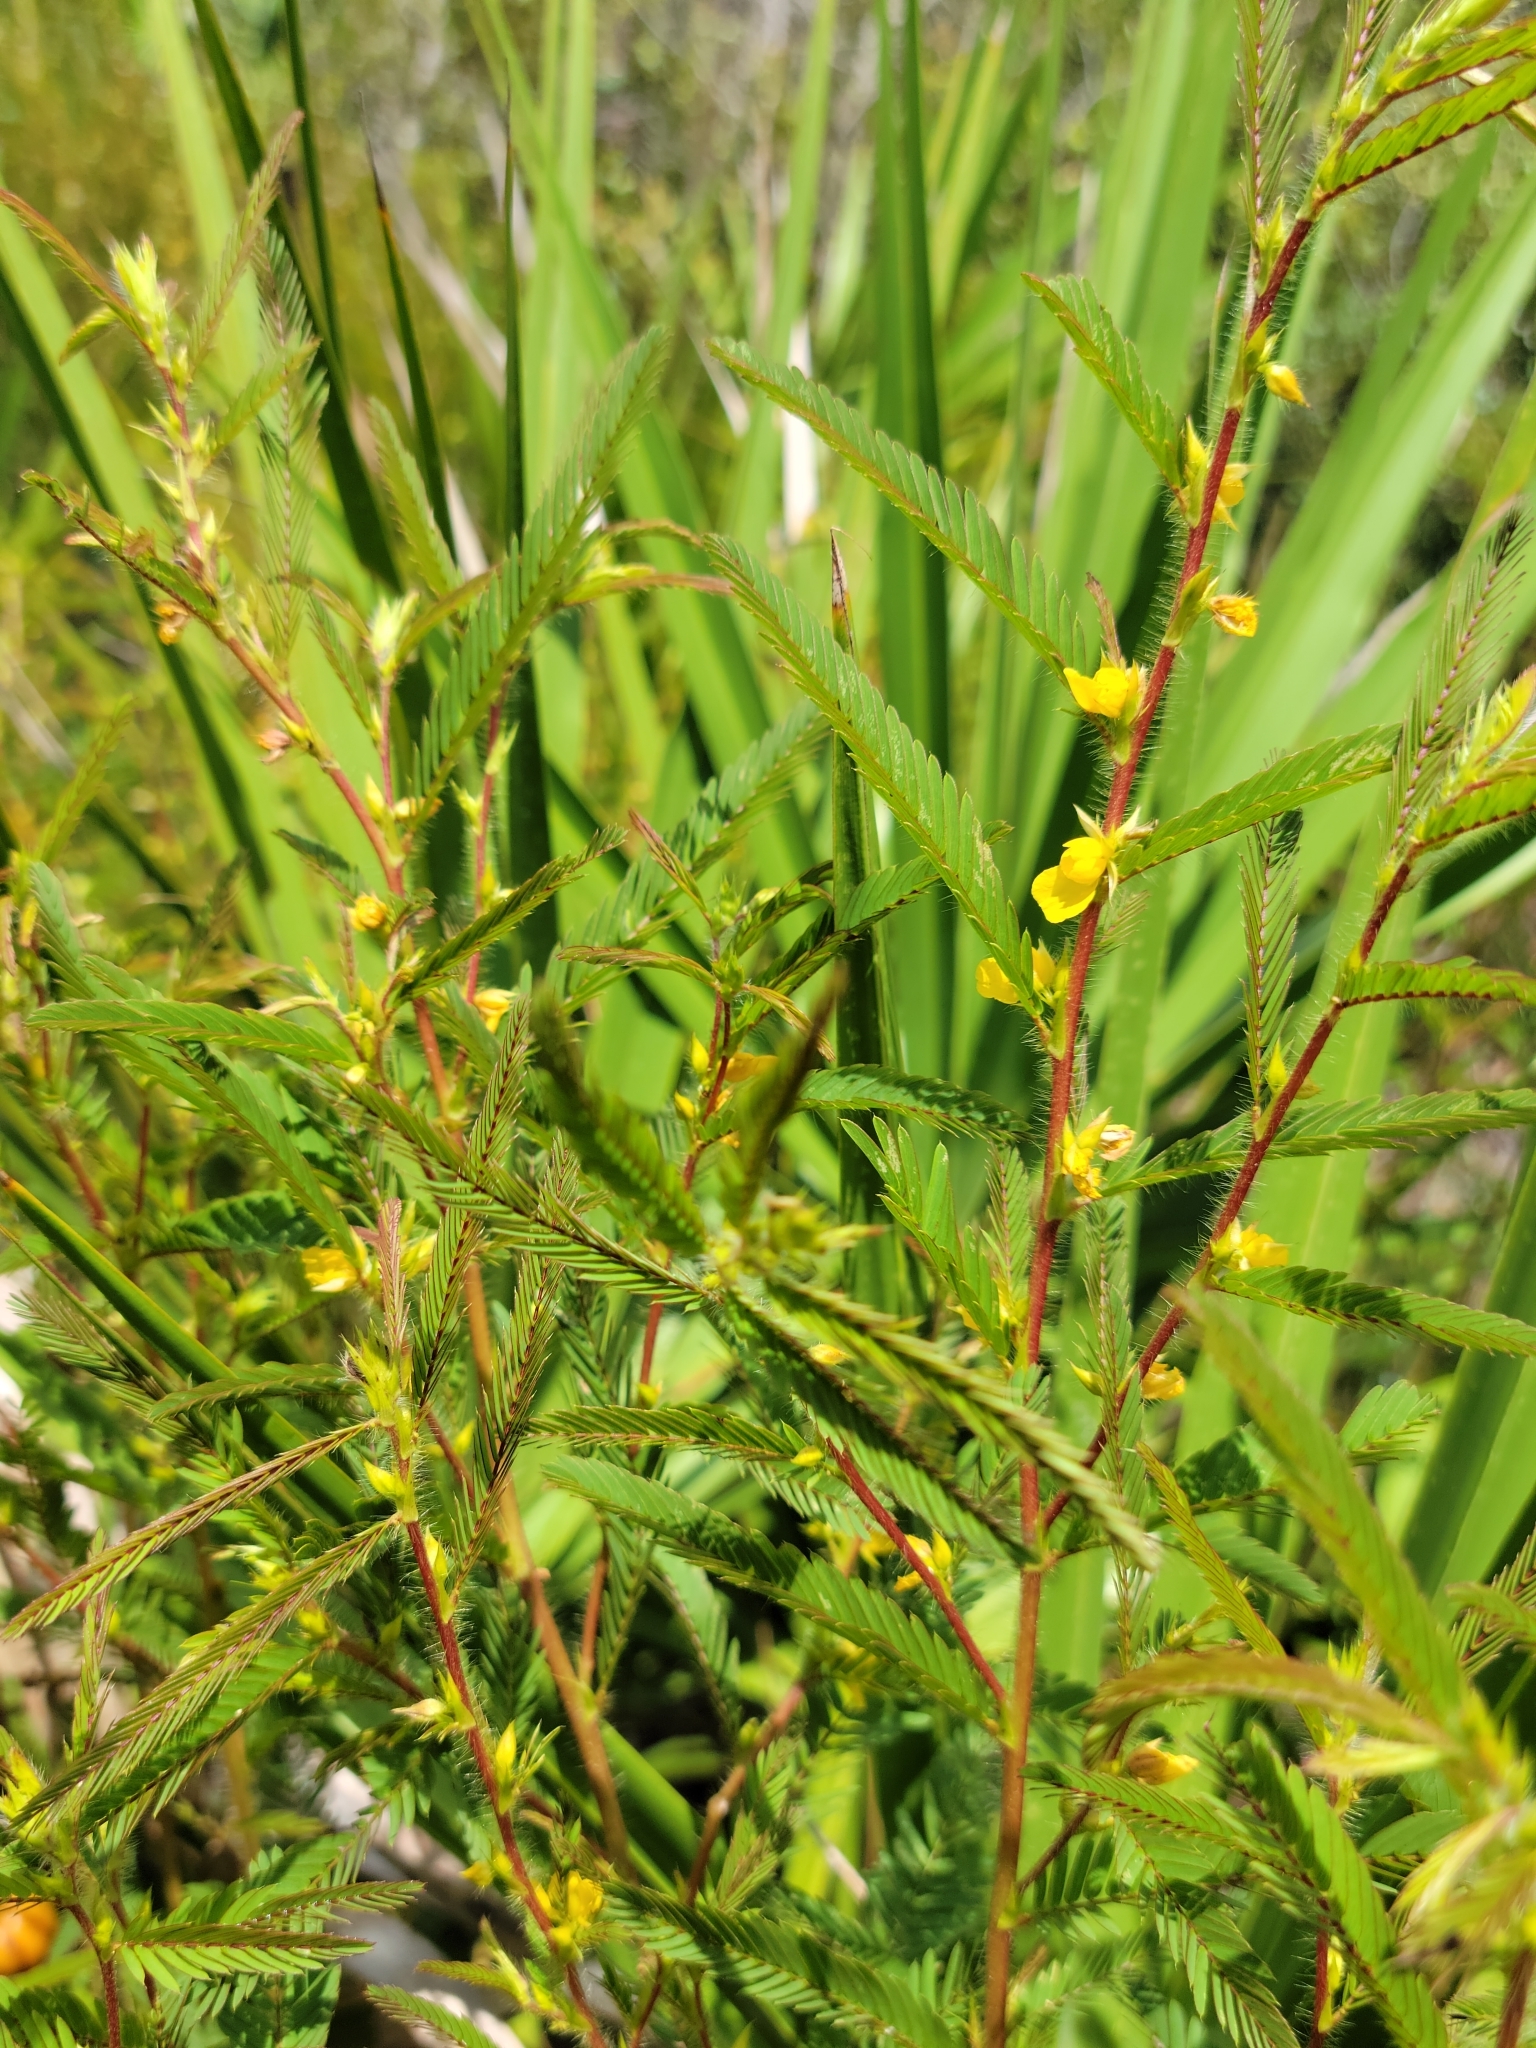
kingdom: Plantae
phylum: Tracheophyta
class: Magnoliopsida
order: Fabales
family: Fabaceae
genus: Chamaecrista
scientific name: Chamaecrista nictitans
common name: Sensitive cassia
